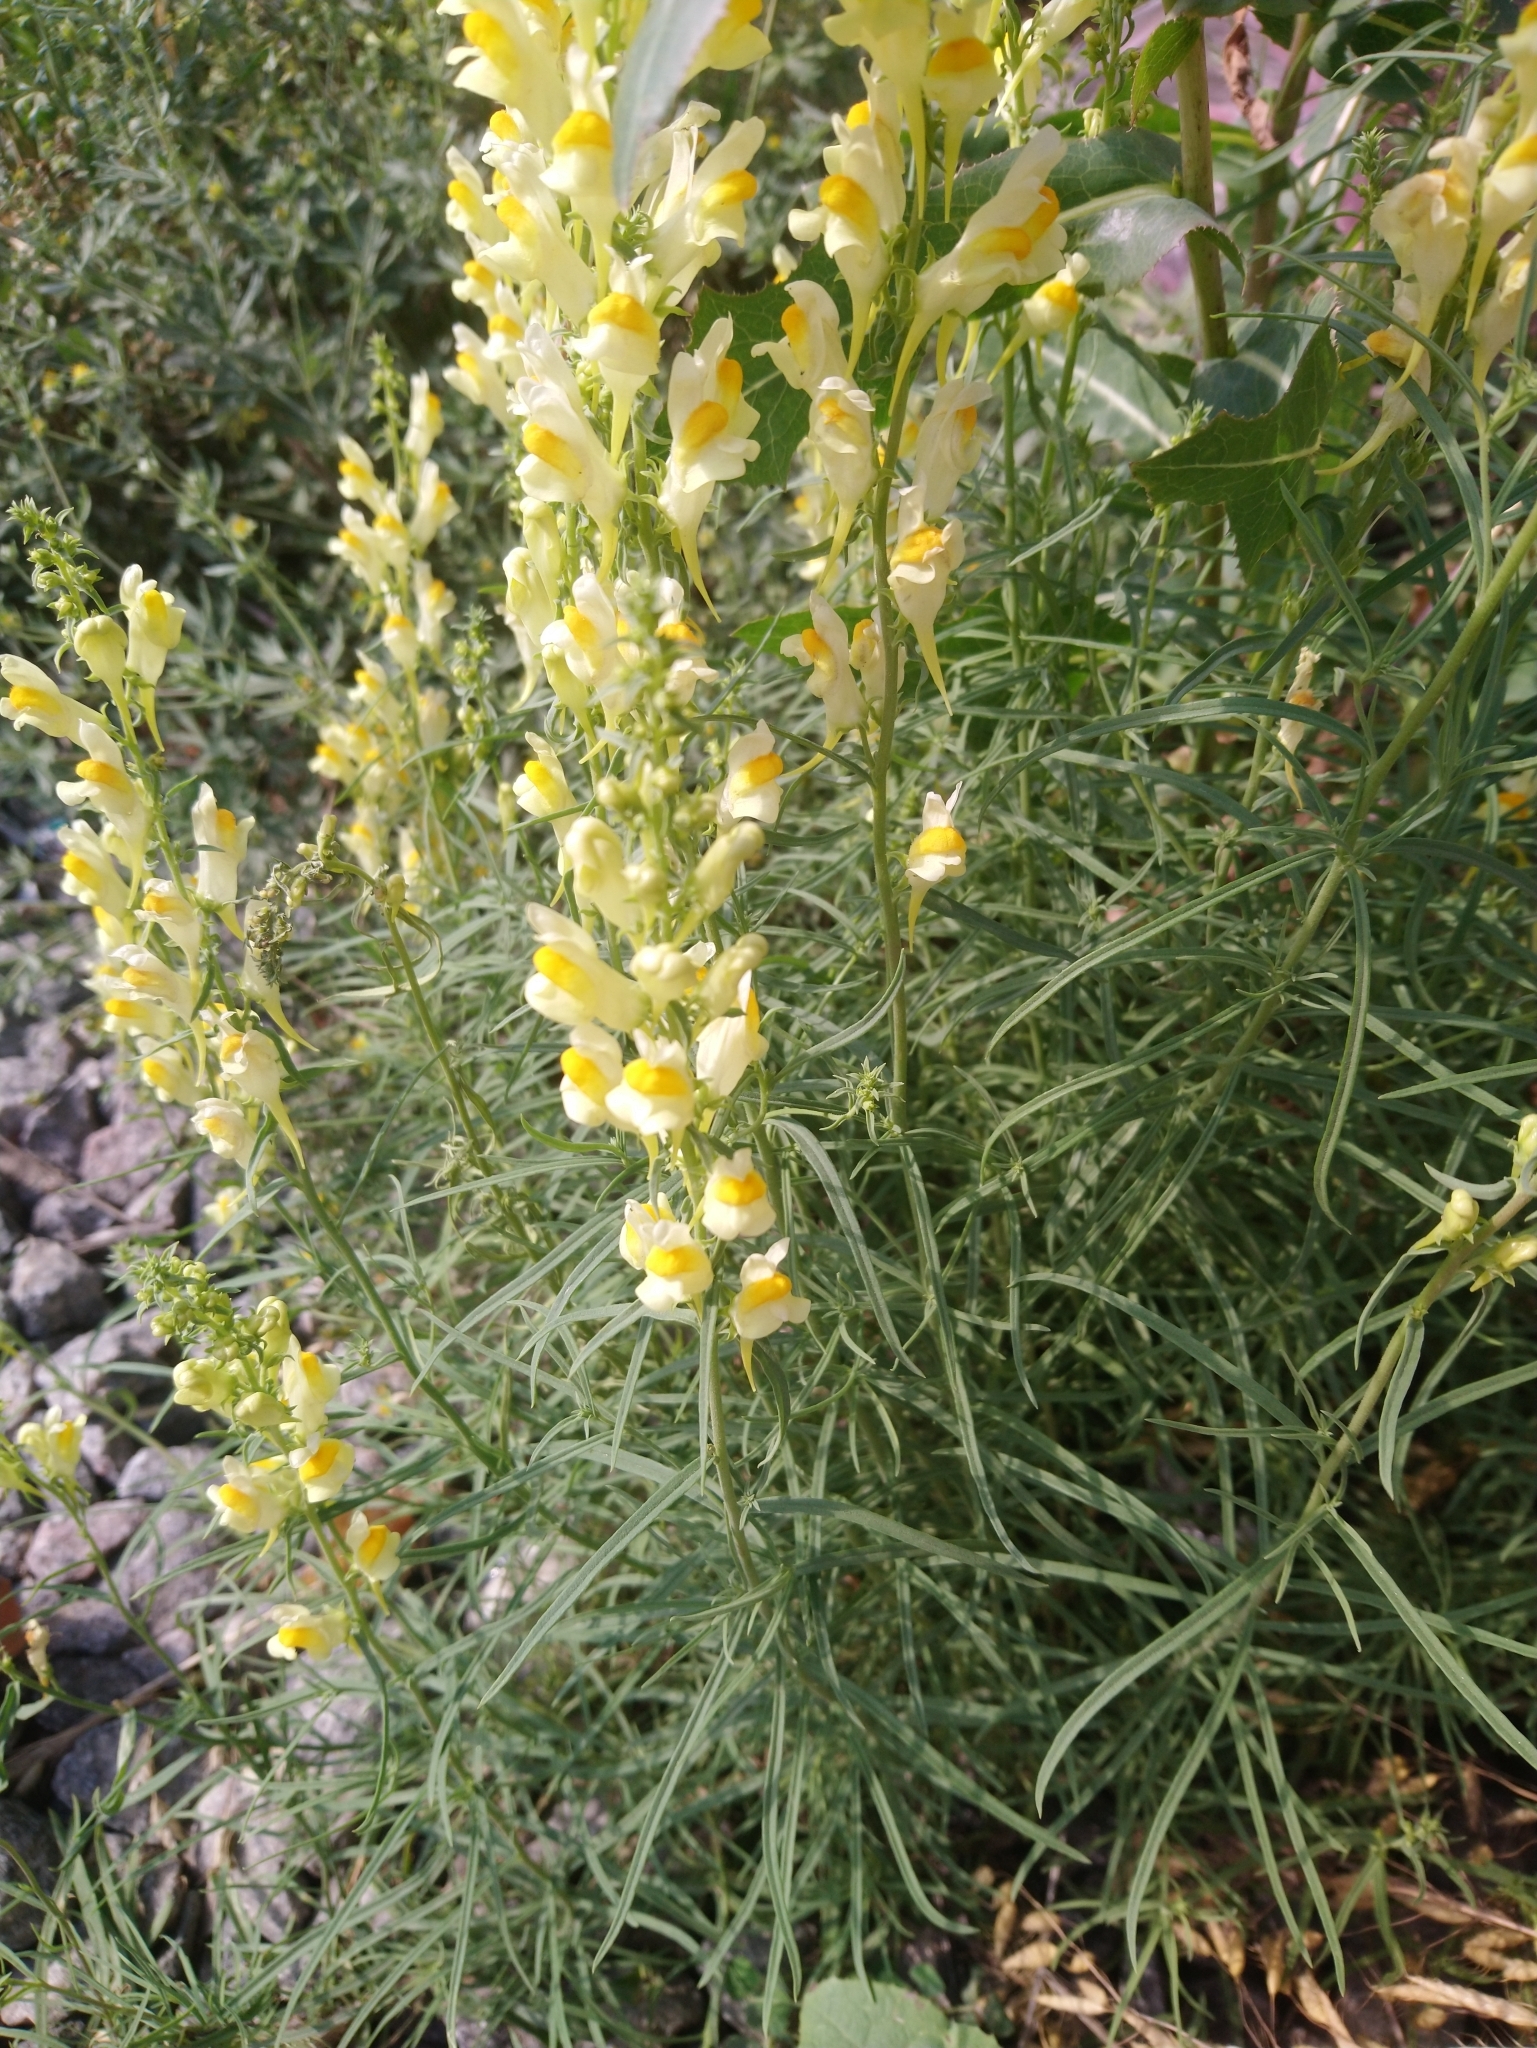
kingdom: Plantae
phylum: Tracheophyta
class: Magnoliopsida
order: Lamiales
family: Plantaginaceae
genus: Linaria
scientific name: Linaria vulgaris
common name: Butter and eggs
